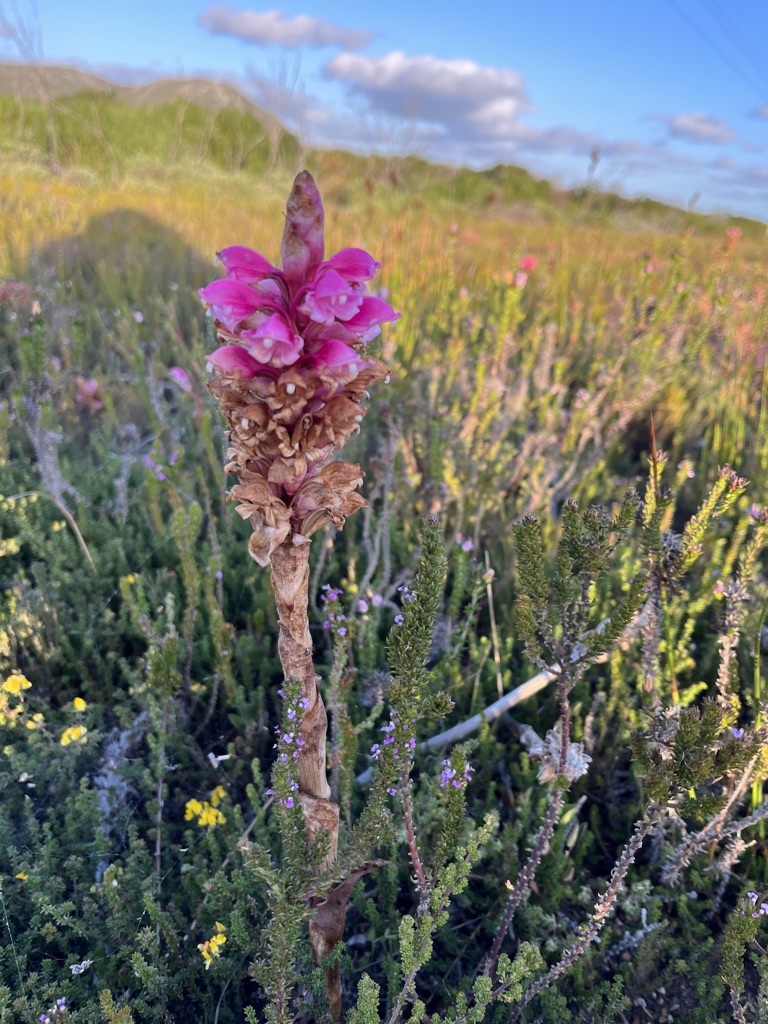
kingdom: Plantae
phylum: Tracheophyta
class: Liliopsida
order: Asparagales
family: Orchidaceae
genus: Satyrium
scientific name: Satyrium carneum
